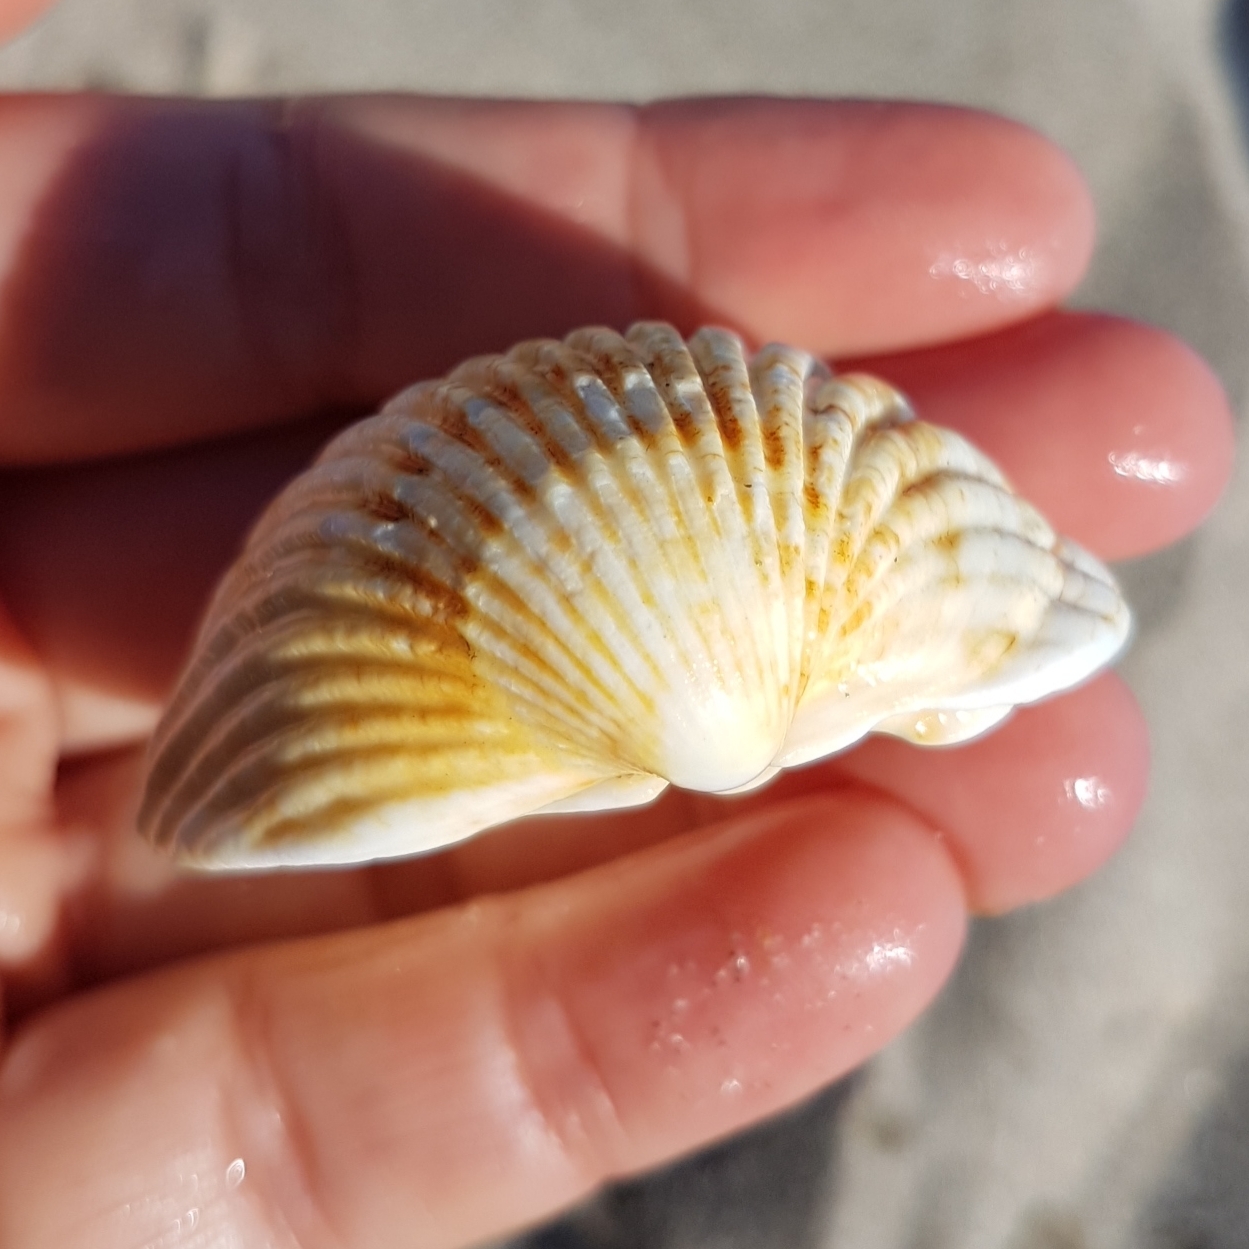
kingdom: Animalia
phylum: Mollusca
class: Bivalvia
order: Cardiida
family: Cardiidae
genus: Acanthocardia
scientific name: Acanthocardia tuberculata
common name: Rough cockle
